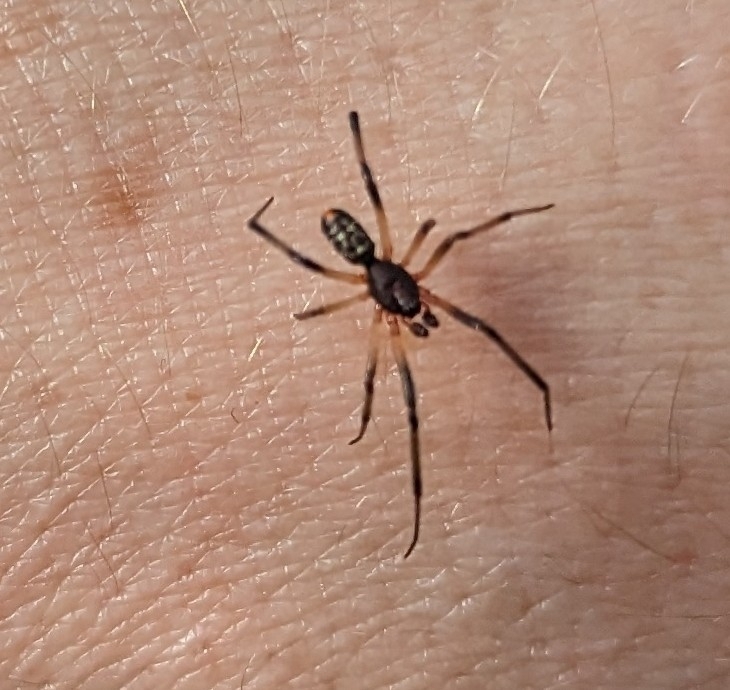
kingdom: Animalia
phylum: Arthropoda
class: Arachnida
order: Araneae
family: Theridiidae
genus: Steatoda
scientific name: Steatoda capensis
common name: Cobweb weaver
